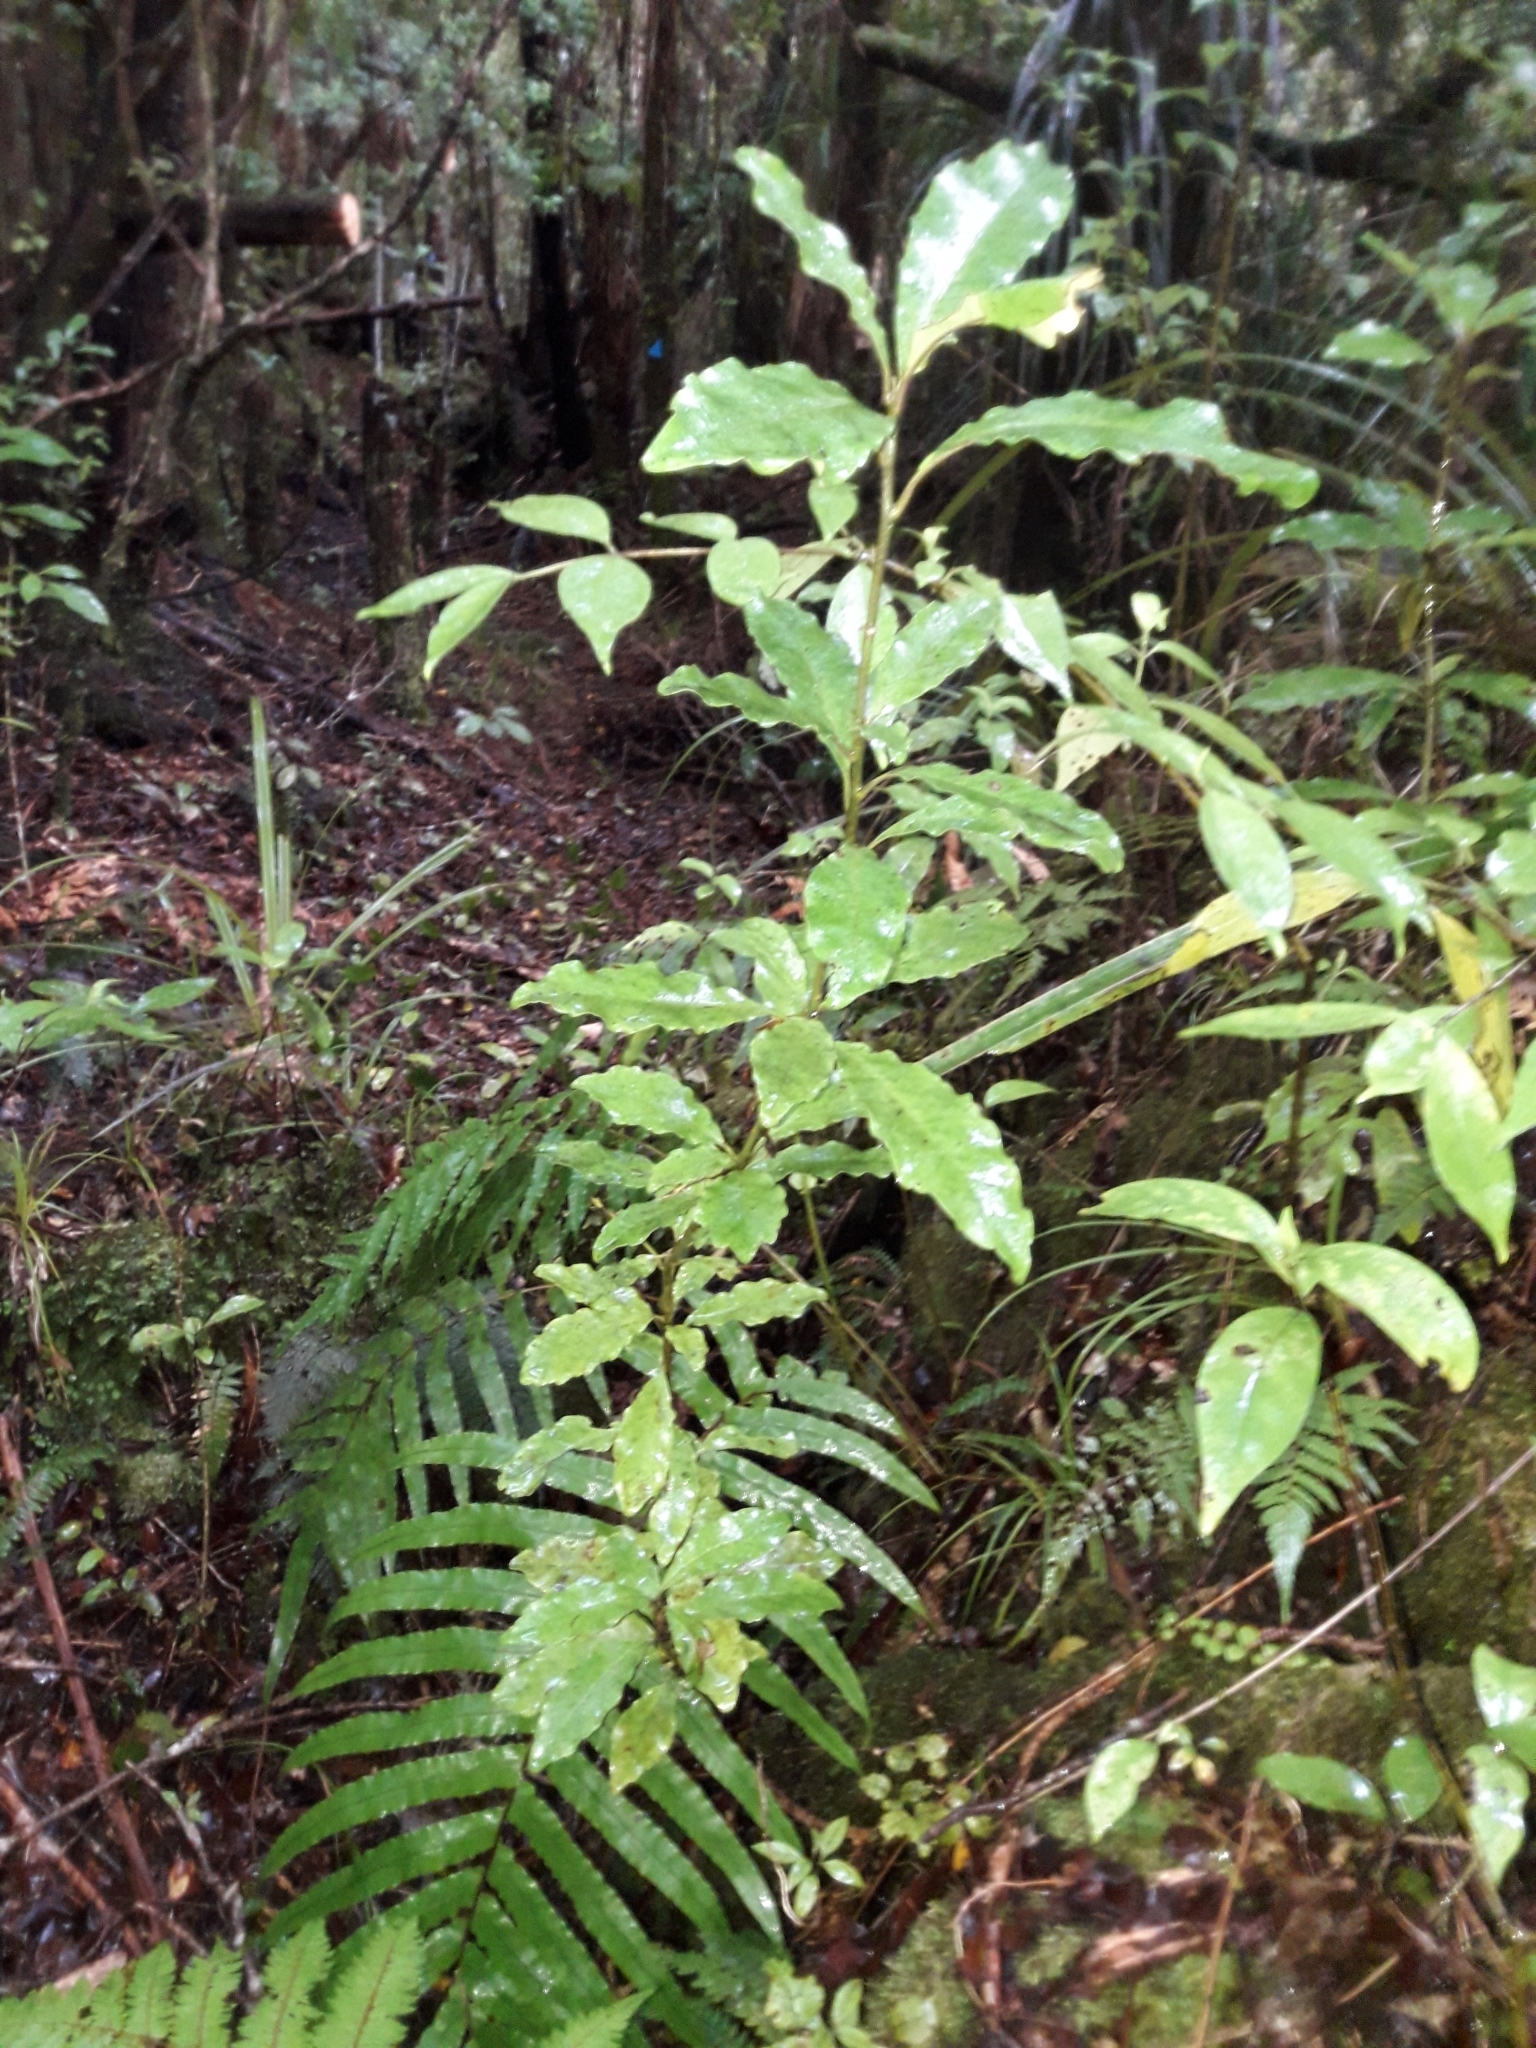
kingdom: Plantae
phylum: Tracheophyta
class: Magnoliopsida
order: Asterales
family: Alseuosmiaceae
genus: Alseuosmia
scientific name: Alseuosmia macrophylla
